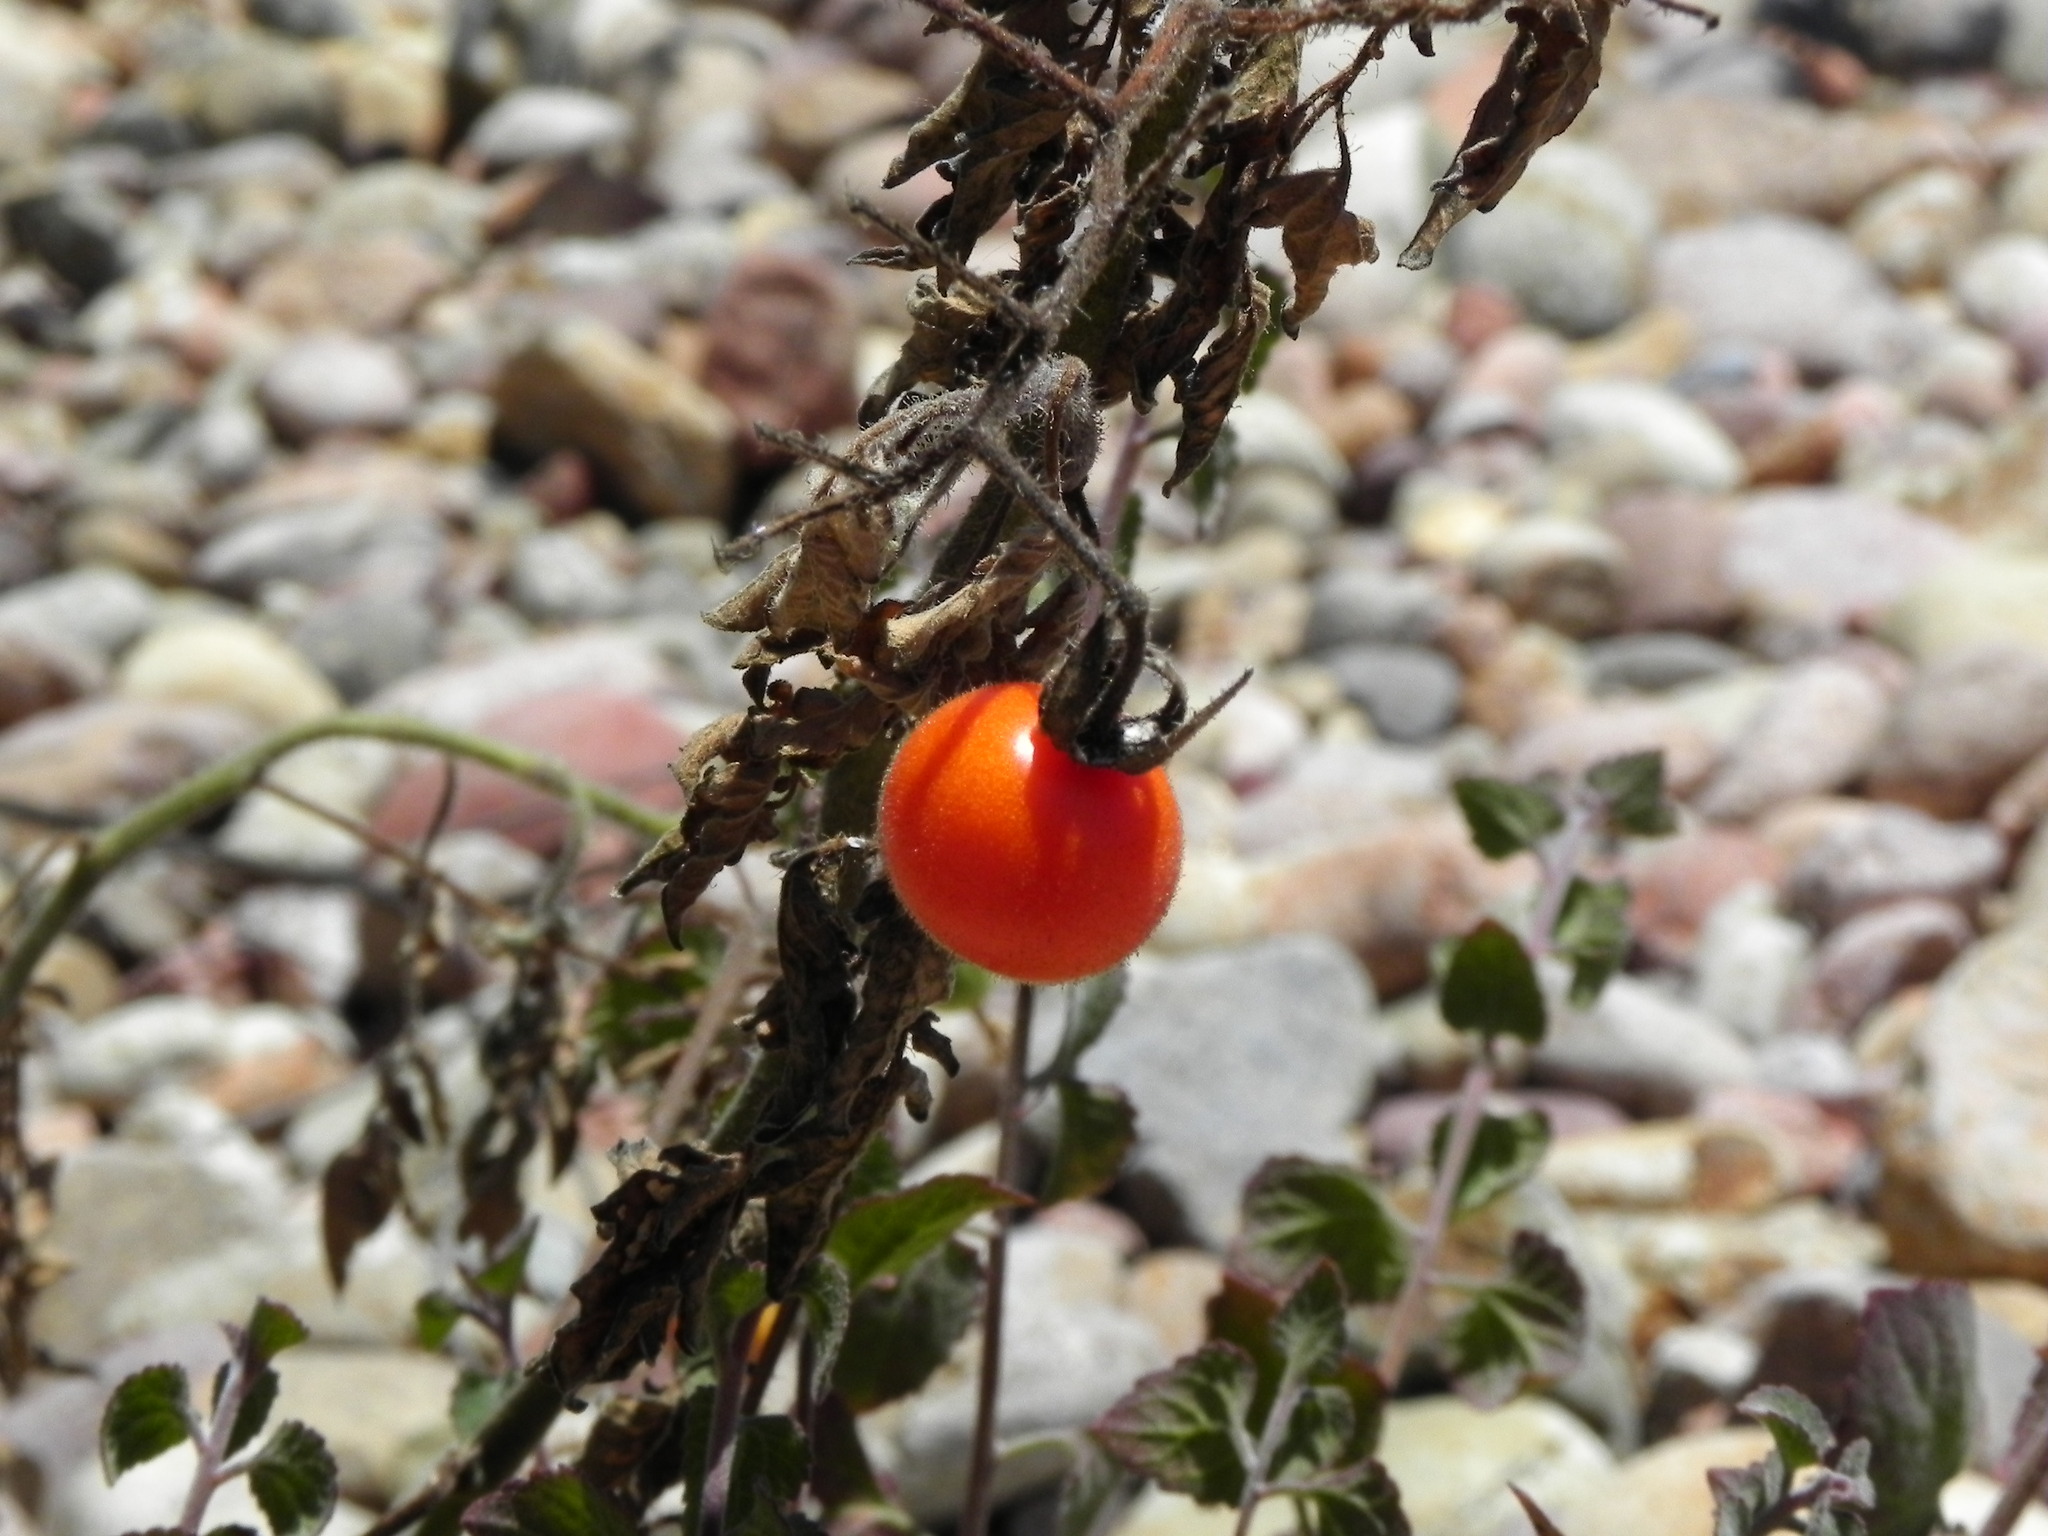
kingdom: Plantae
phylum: Tracheophyta
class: Magnoliopsida
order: Solanales
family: Solanaceae
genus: Solanum
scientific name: Solanum lycopersicum
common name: Garden tomato
